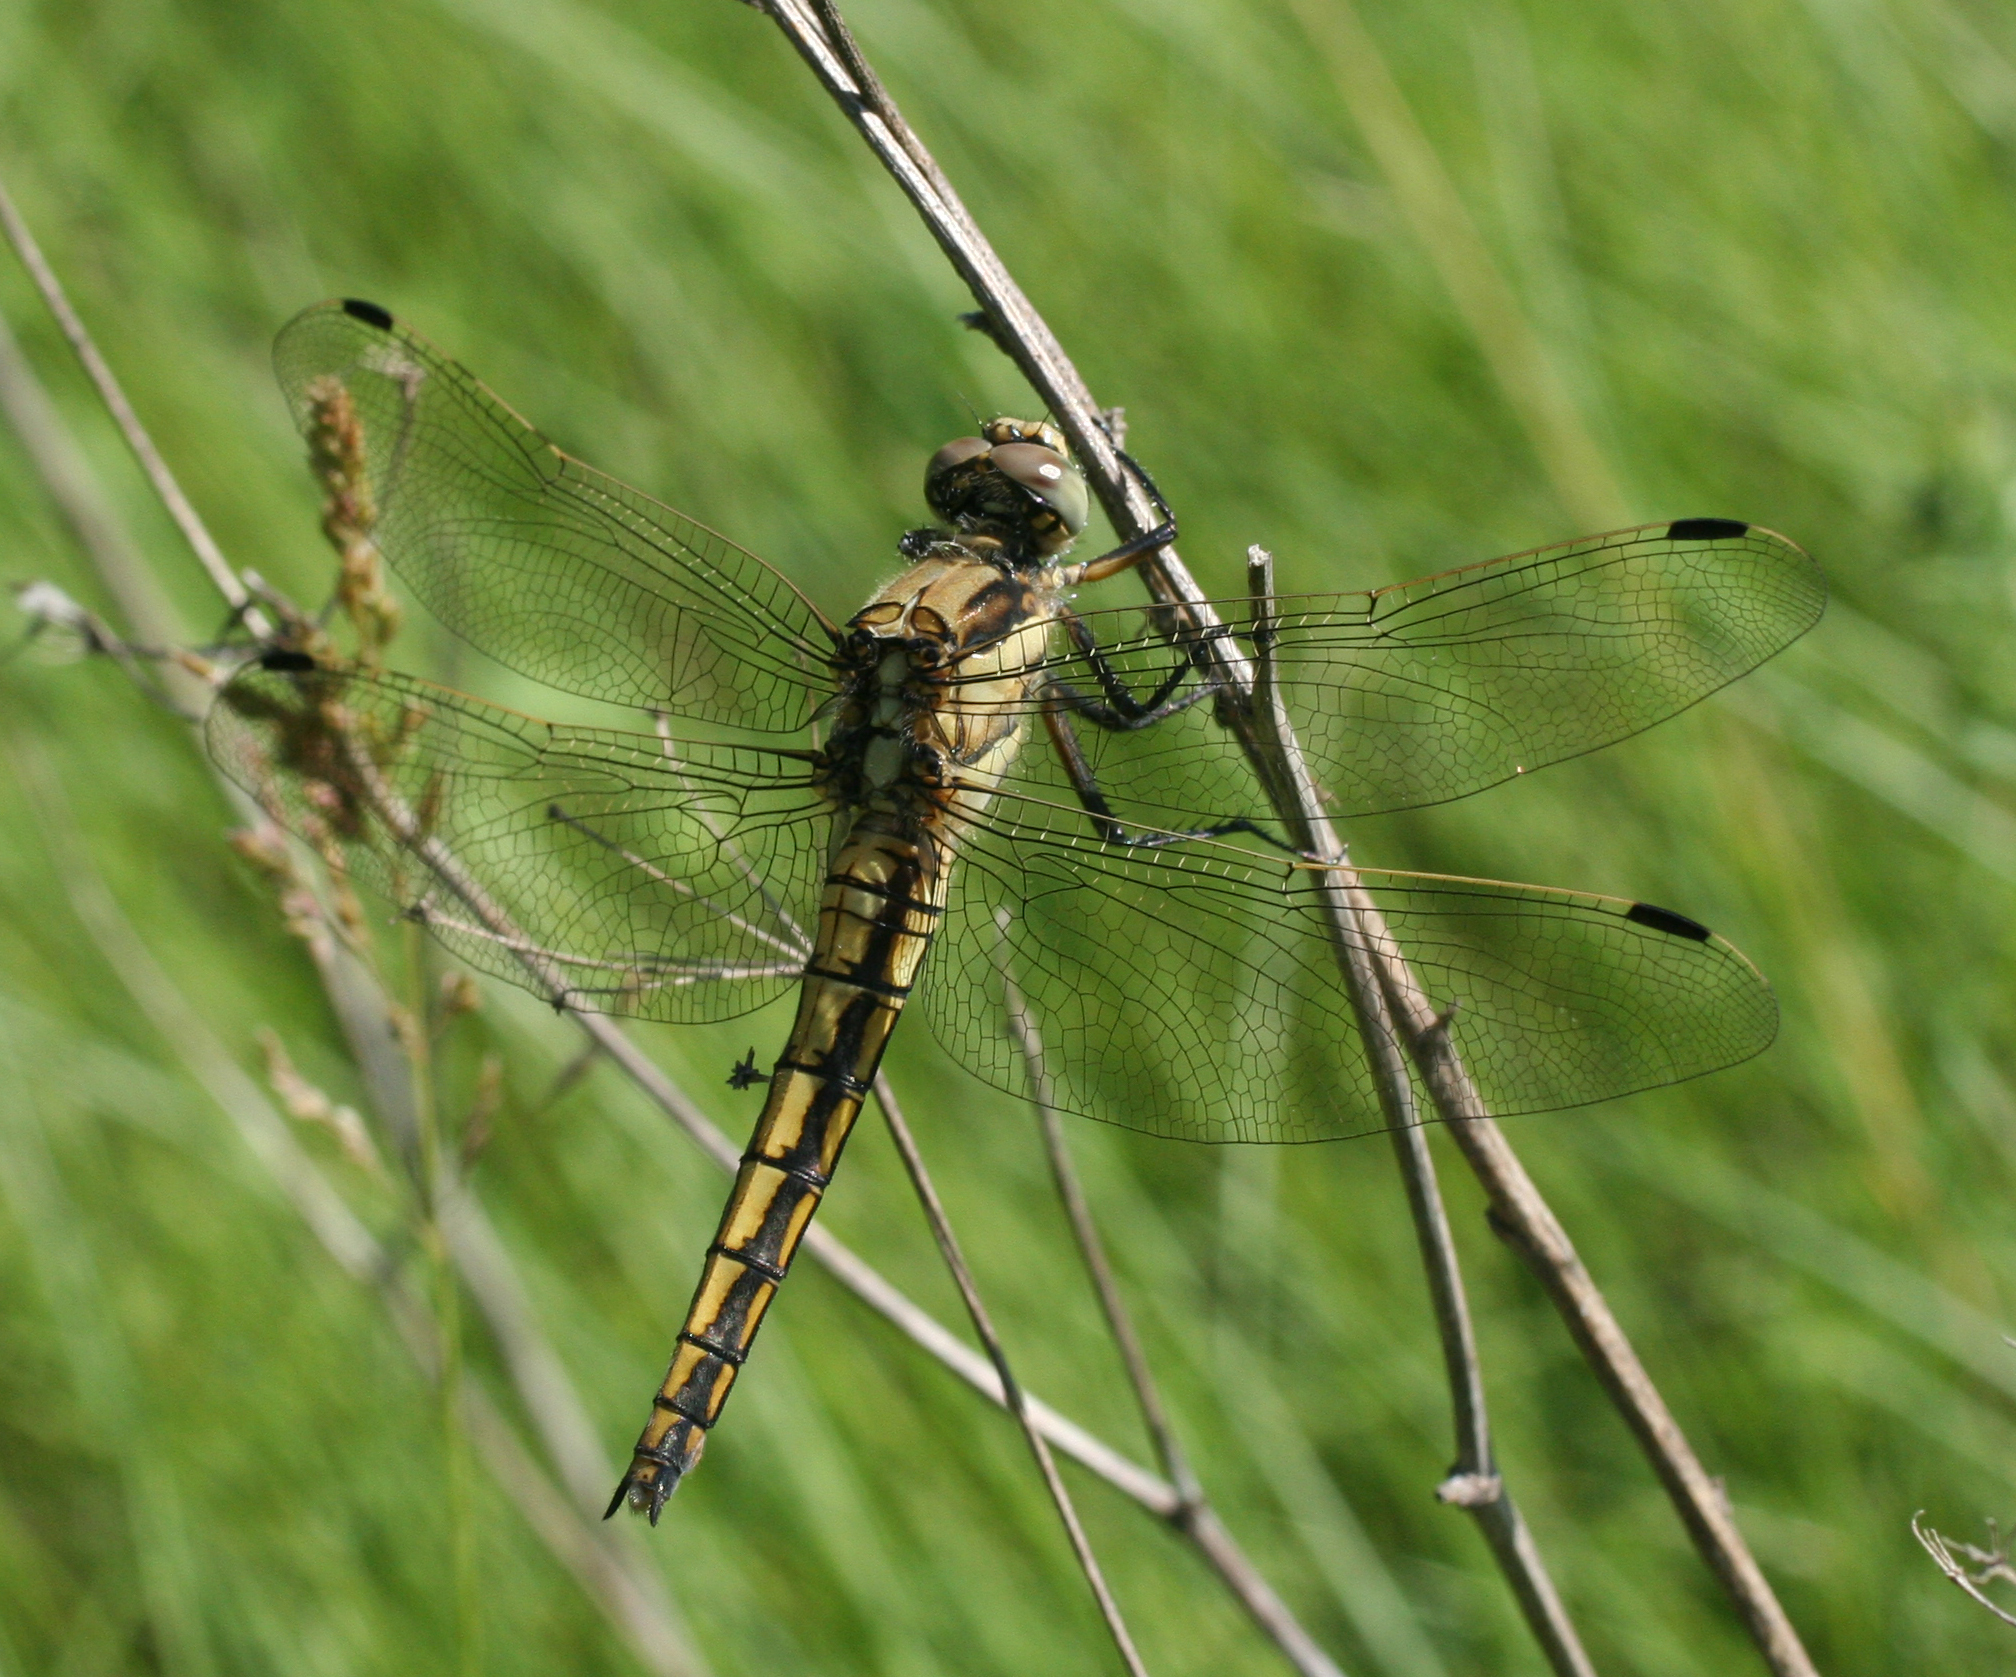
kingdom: Animalia
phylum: Arthropoda
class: Insecta
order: Odonata
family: Libellulidae
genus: Orthetrum
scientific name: Orthetrum cancellatum
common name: Black-tailed skimmer
